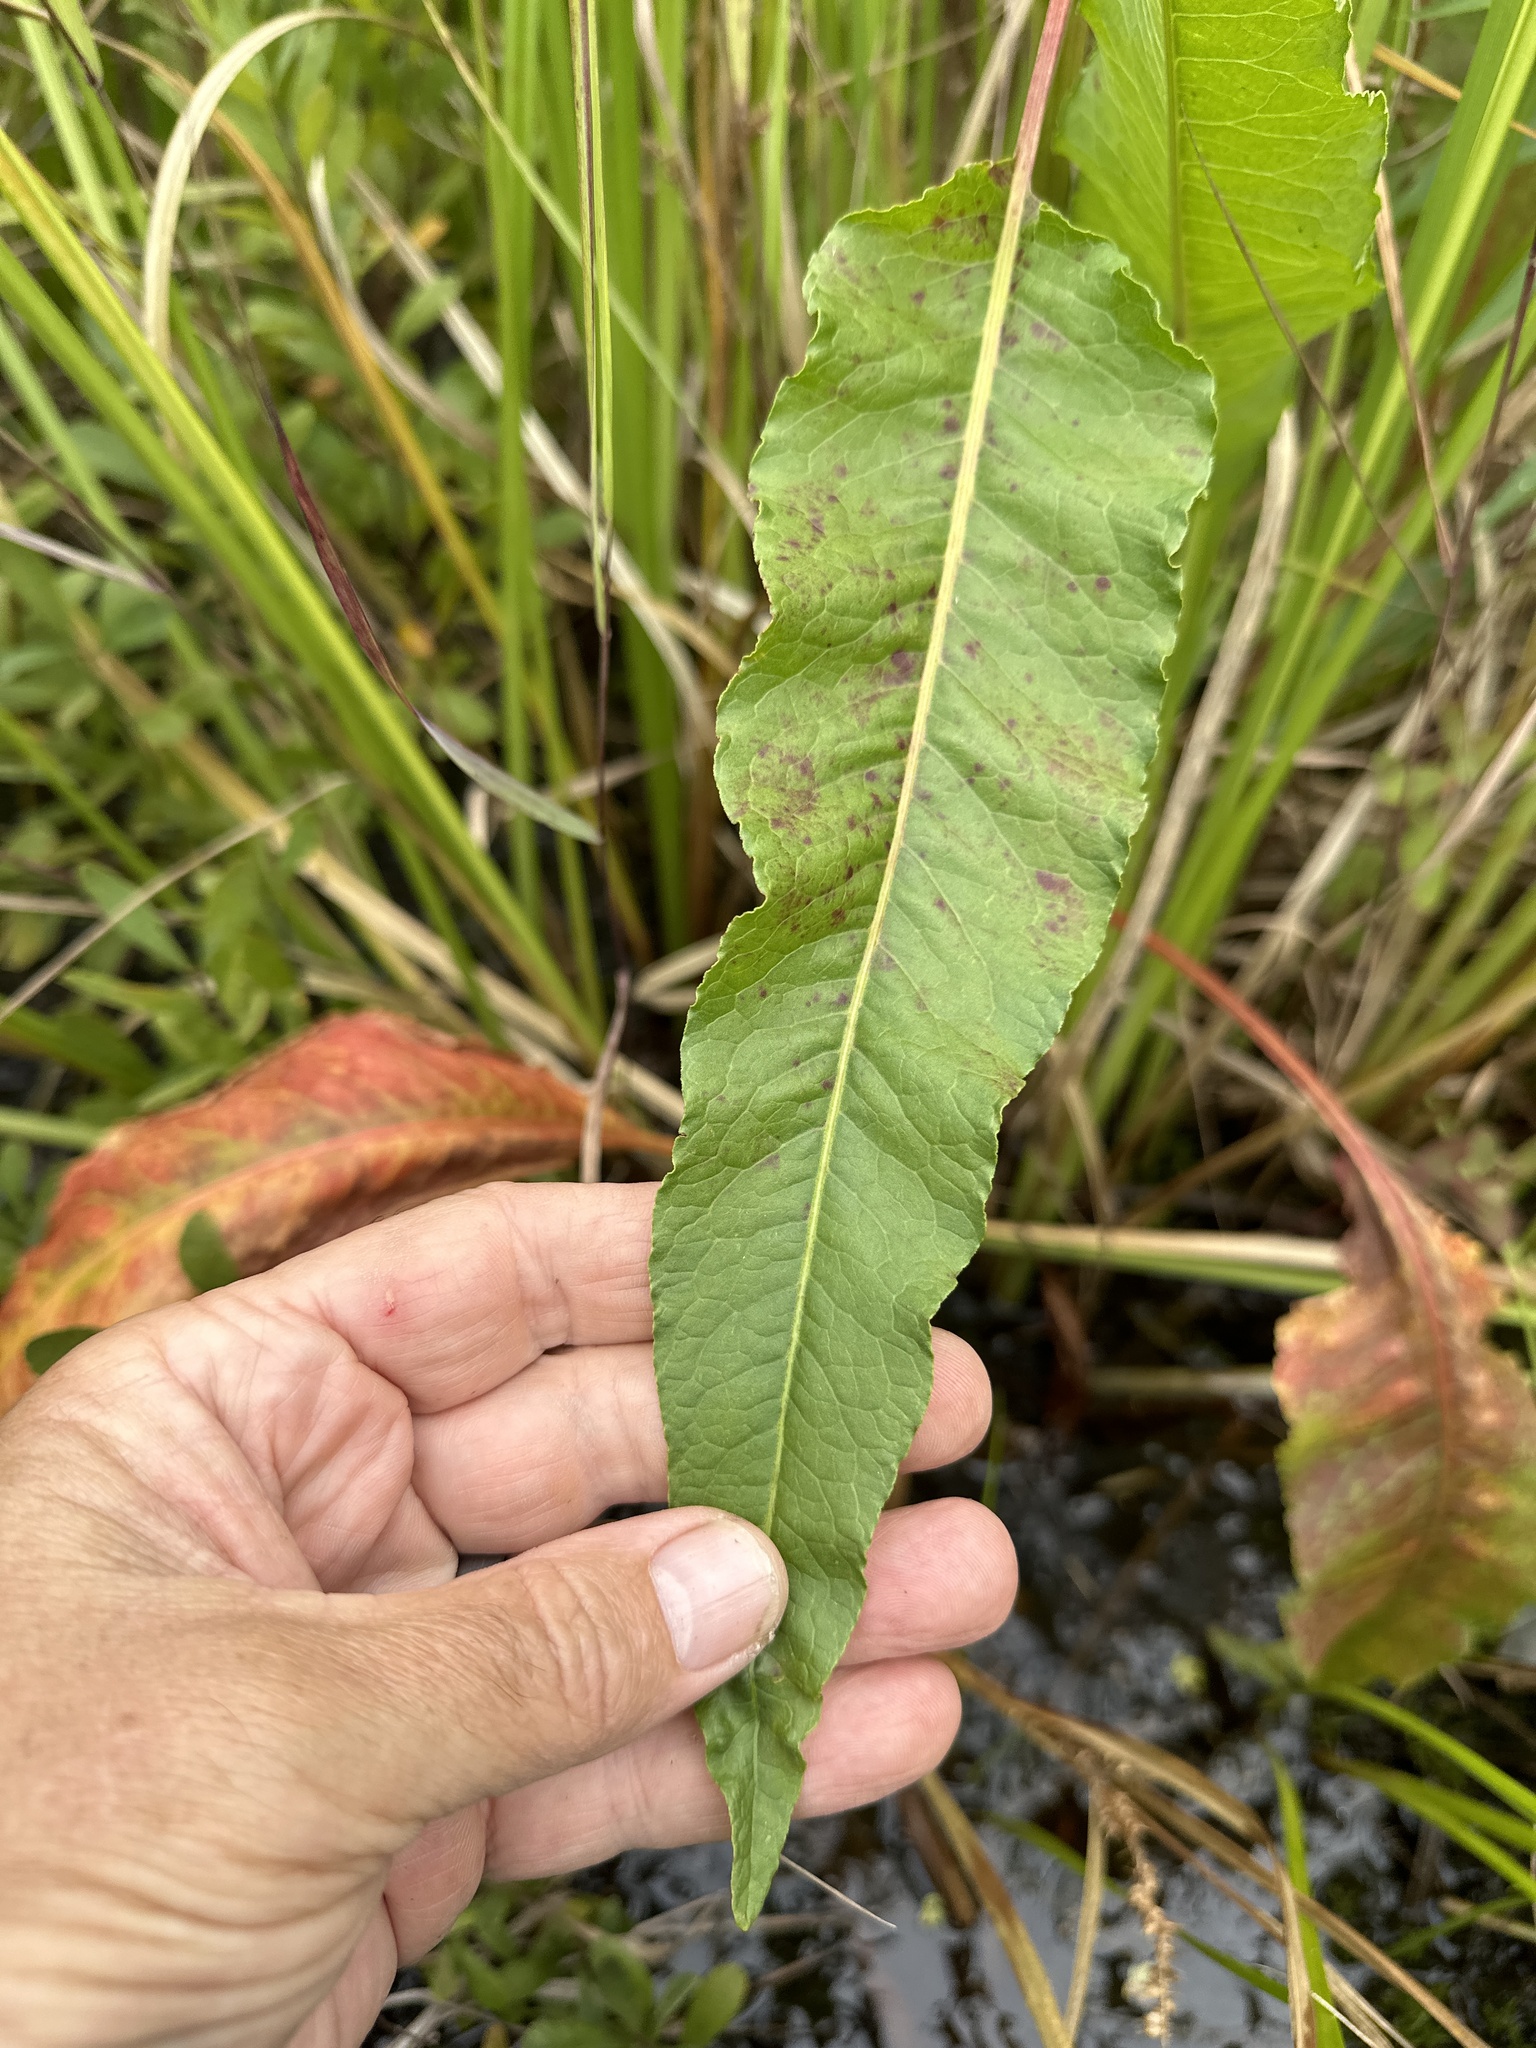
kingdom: Plantae
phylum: Tracheophyta
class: Magnoliopsida
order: Caryophyllales
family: Polygonaceae
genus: Rumex
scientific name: Rumex crispus
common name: Curled dock
